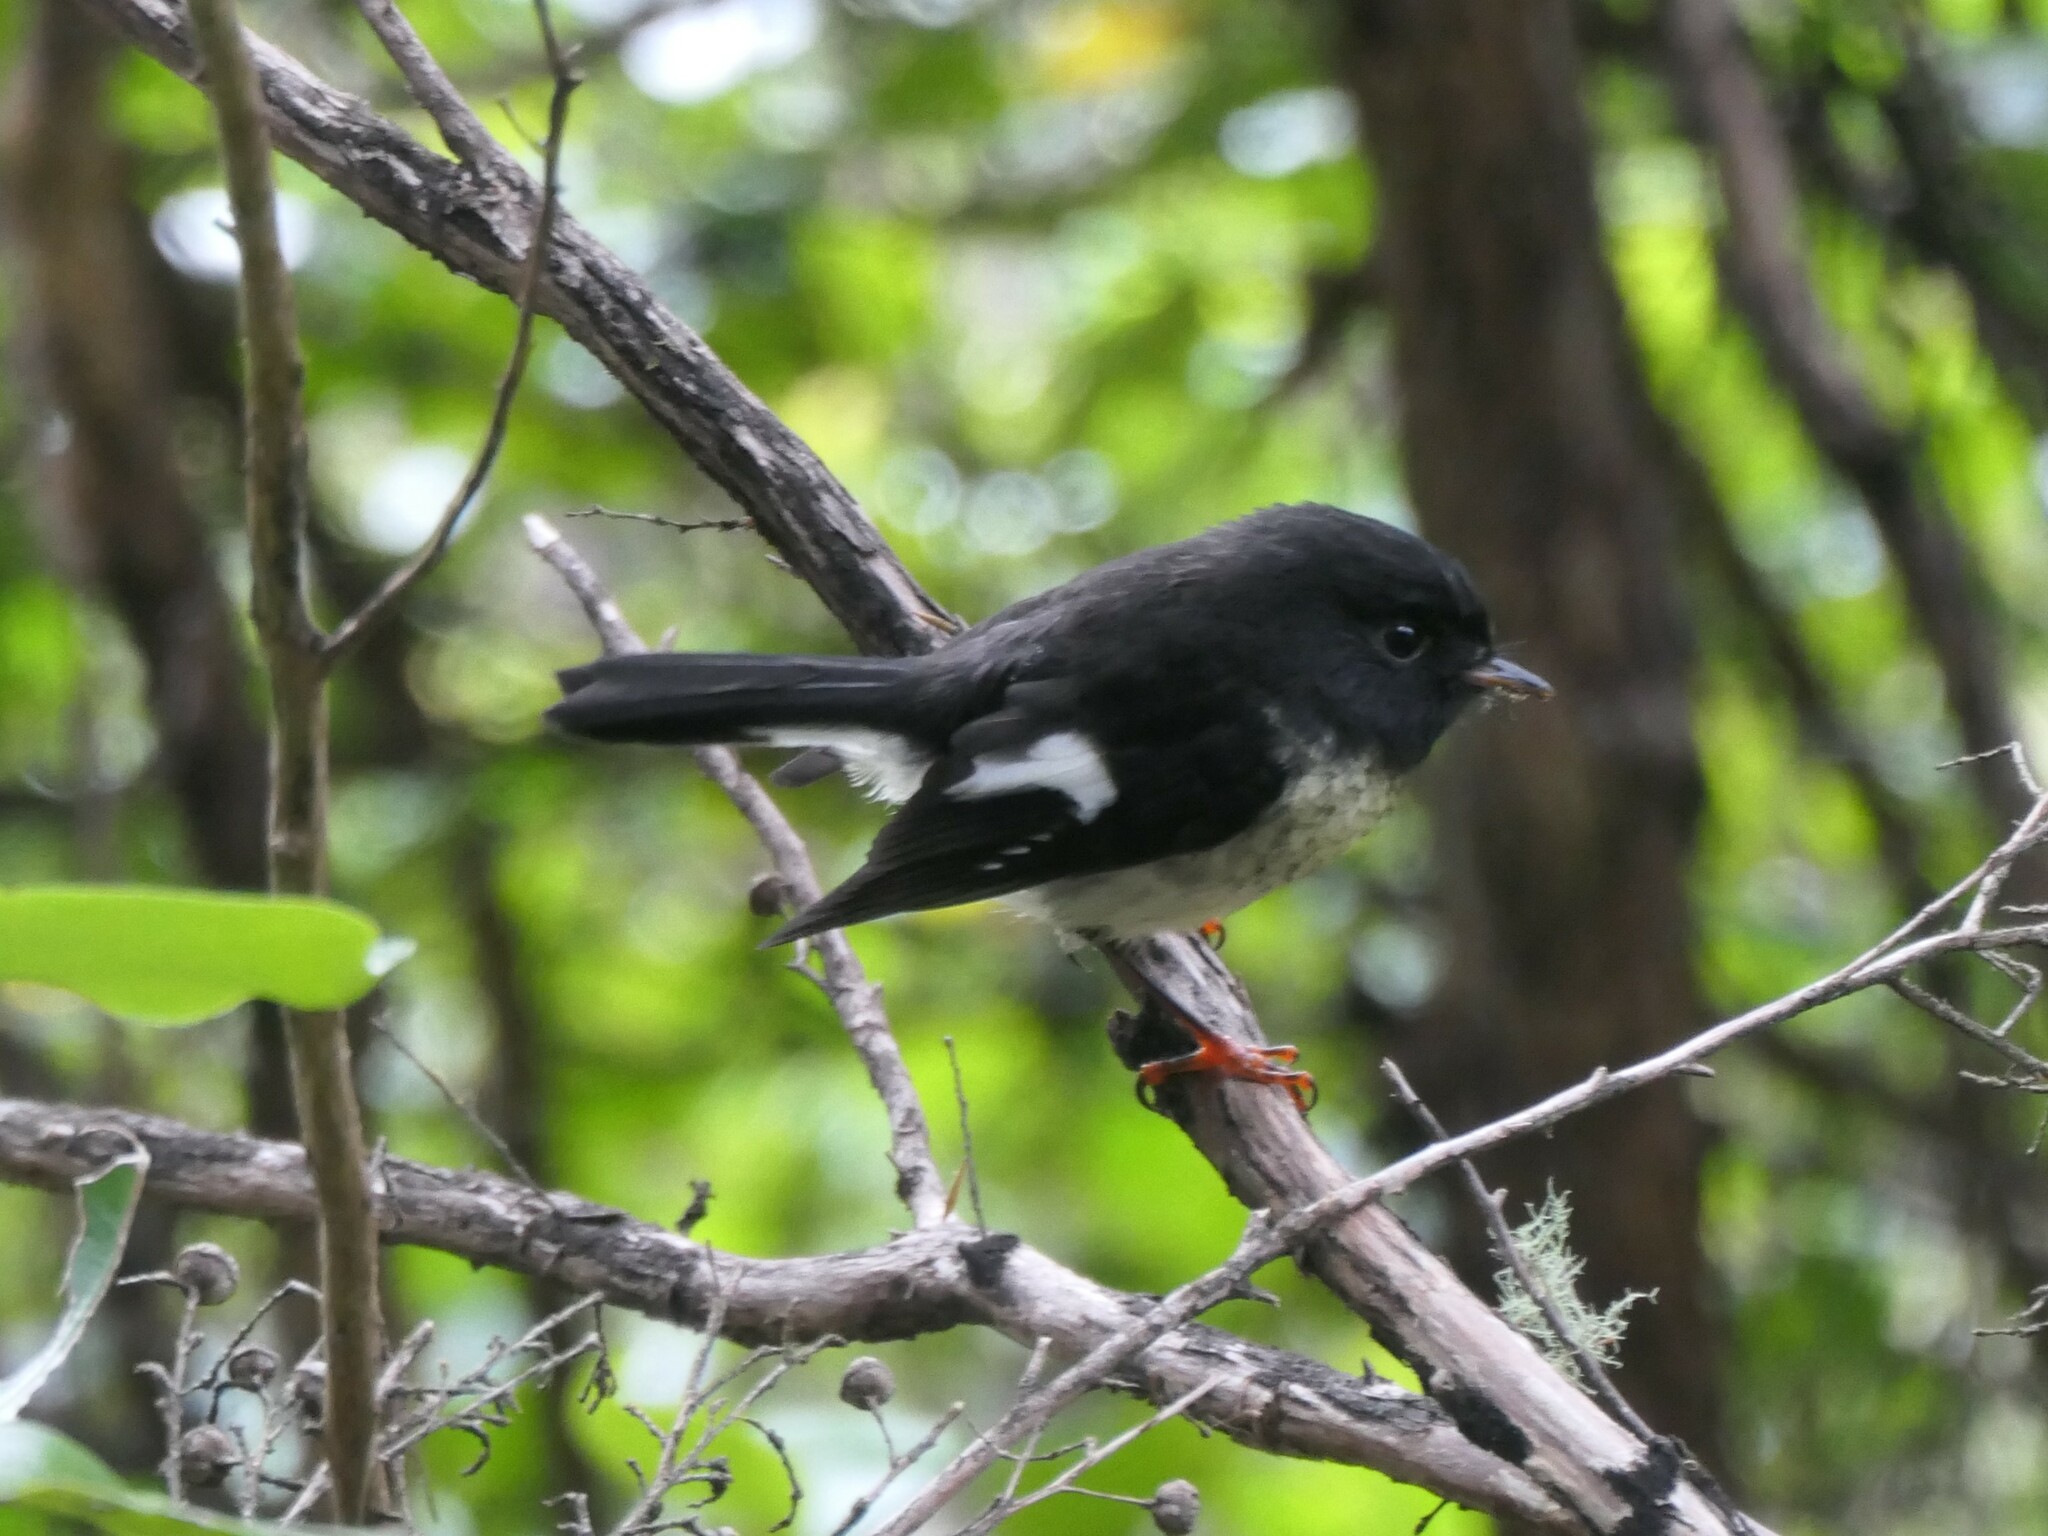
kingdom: Animalia
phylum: Chordata
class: Aves
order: Passeriformes
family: Petroicidae
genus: Petroica
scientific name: Petroica macrocephala
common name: Tomtit
